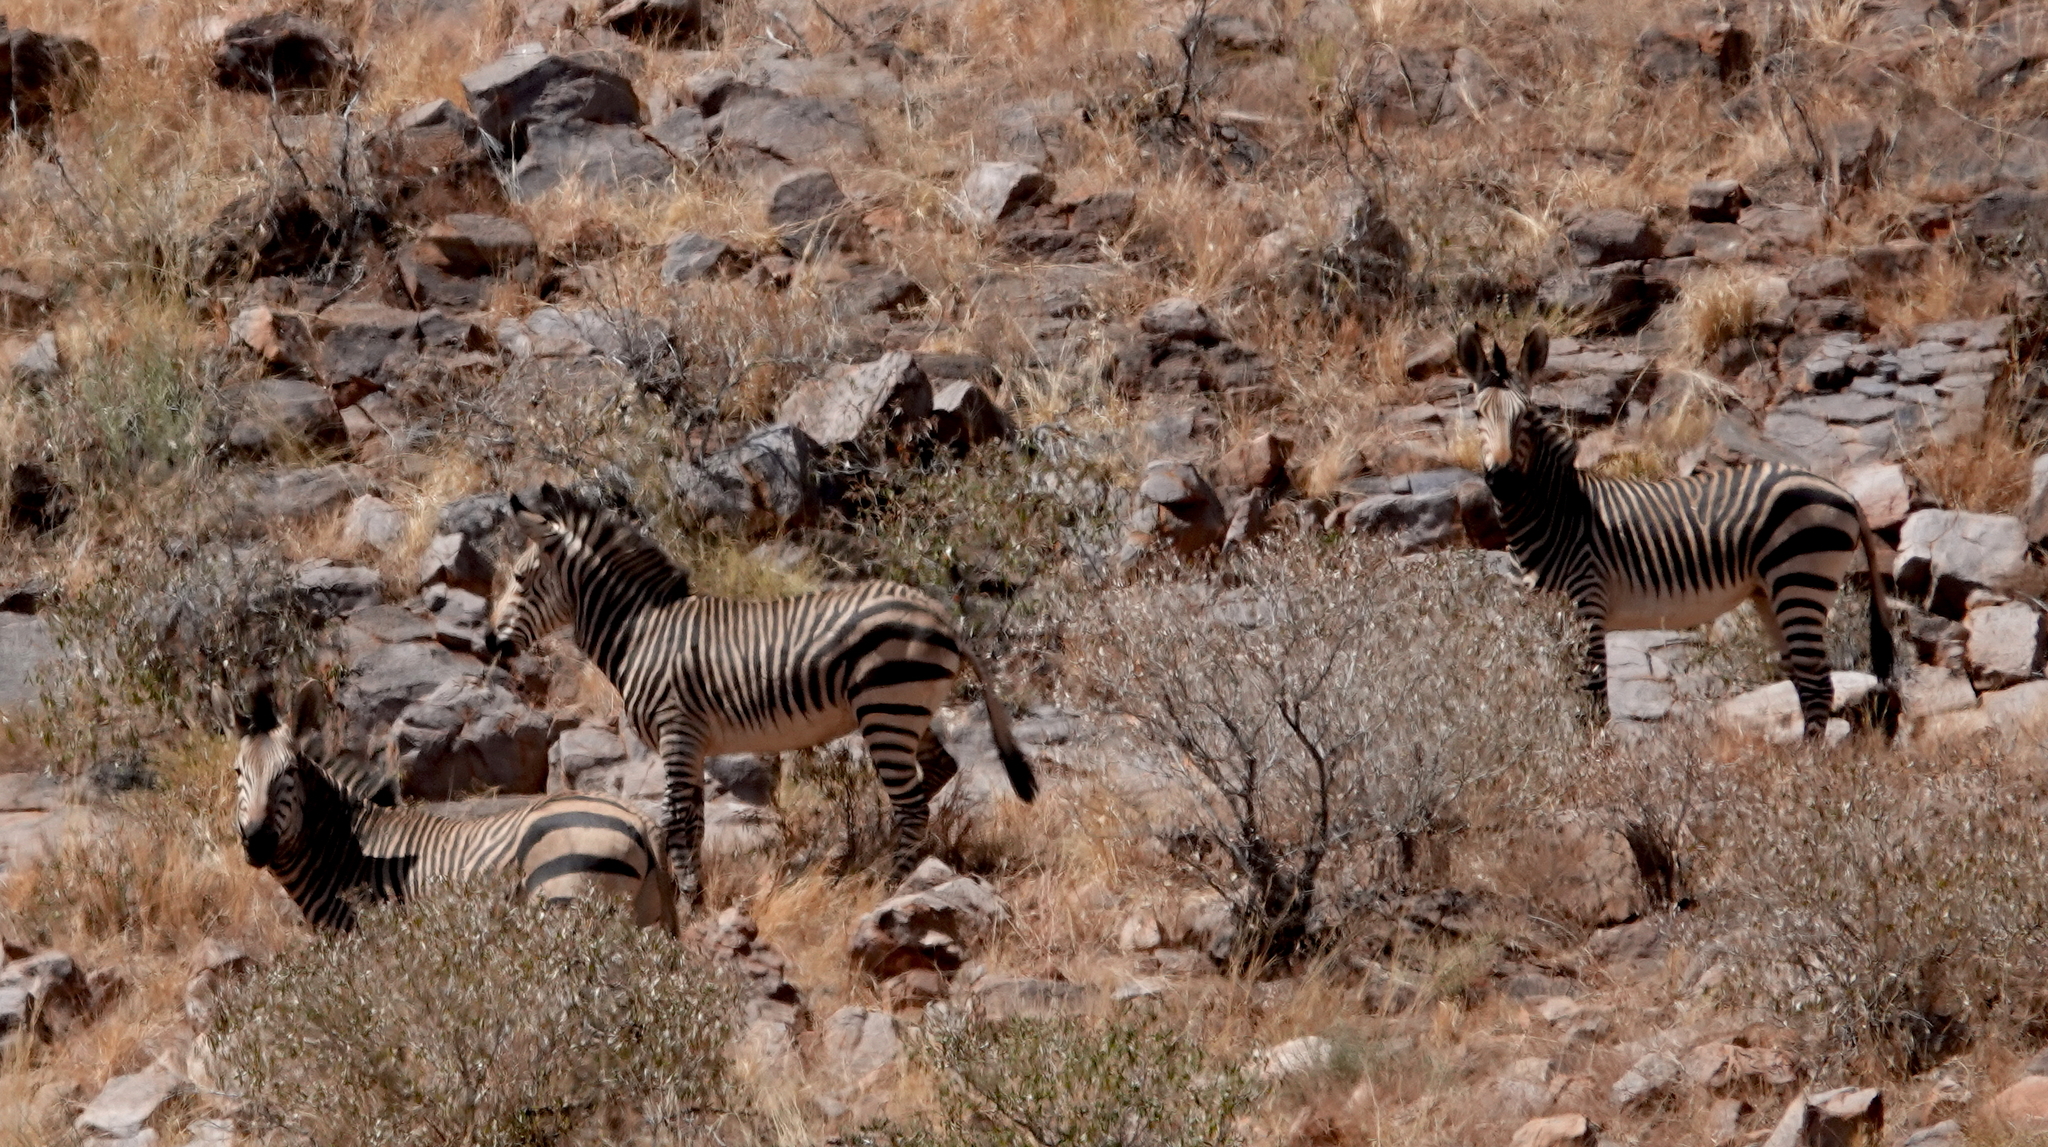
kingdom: Animalia
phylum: Chordata
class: Mammalia
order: Perissodactyla
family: Equidae
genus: Equus
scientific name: Equus hartmannae
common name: Hartmann's mountain zebra
